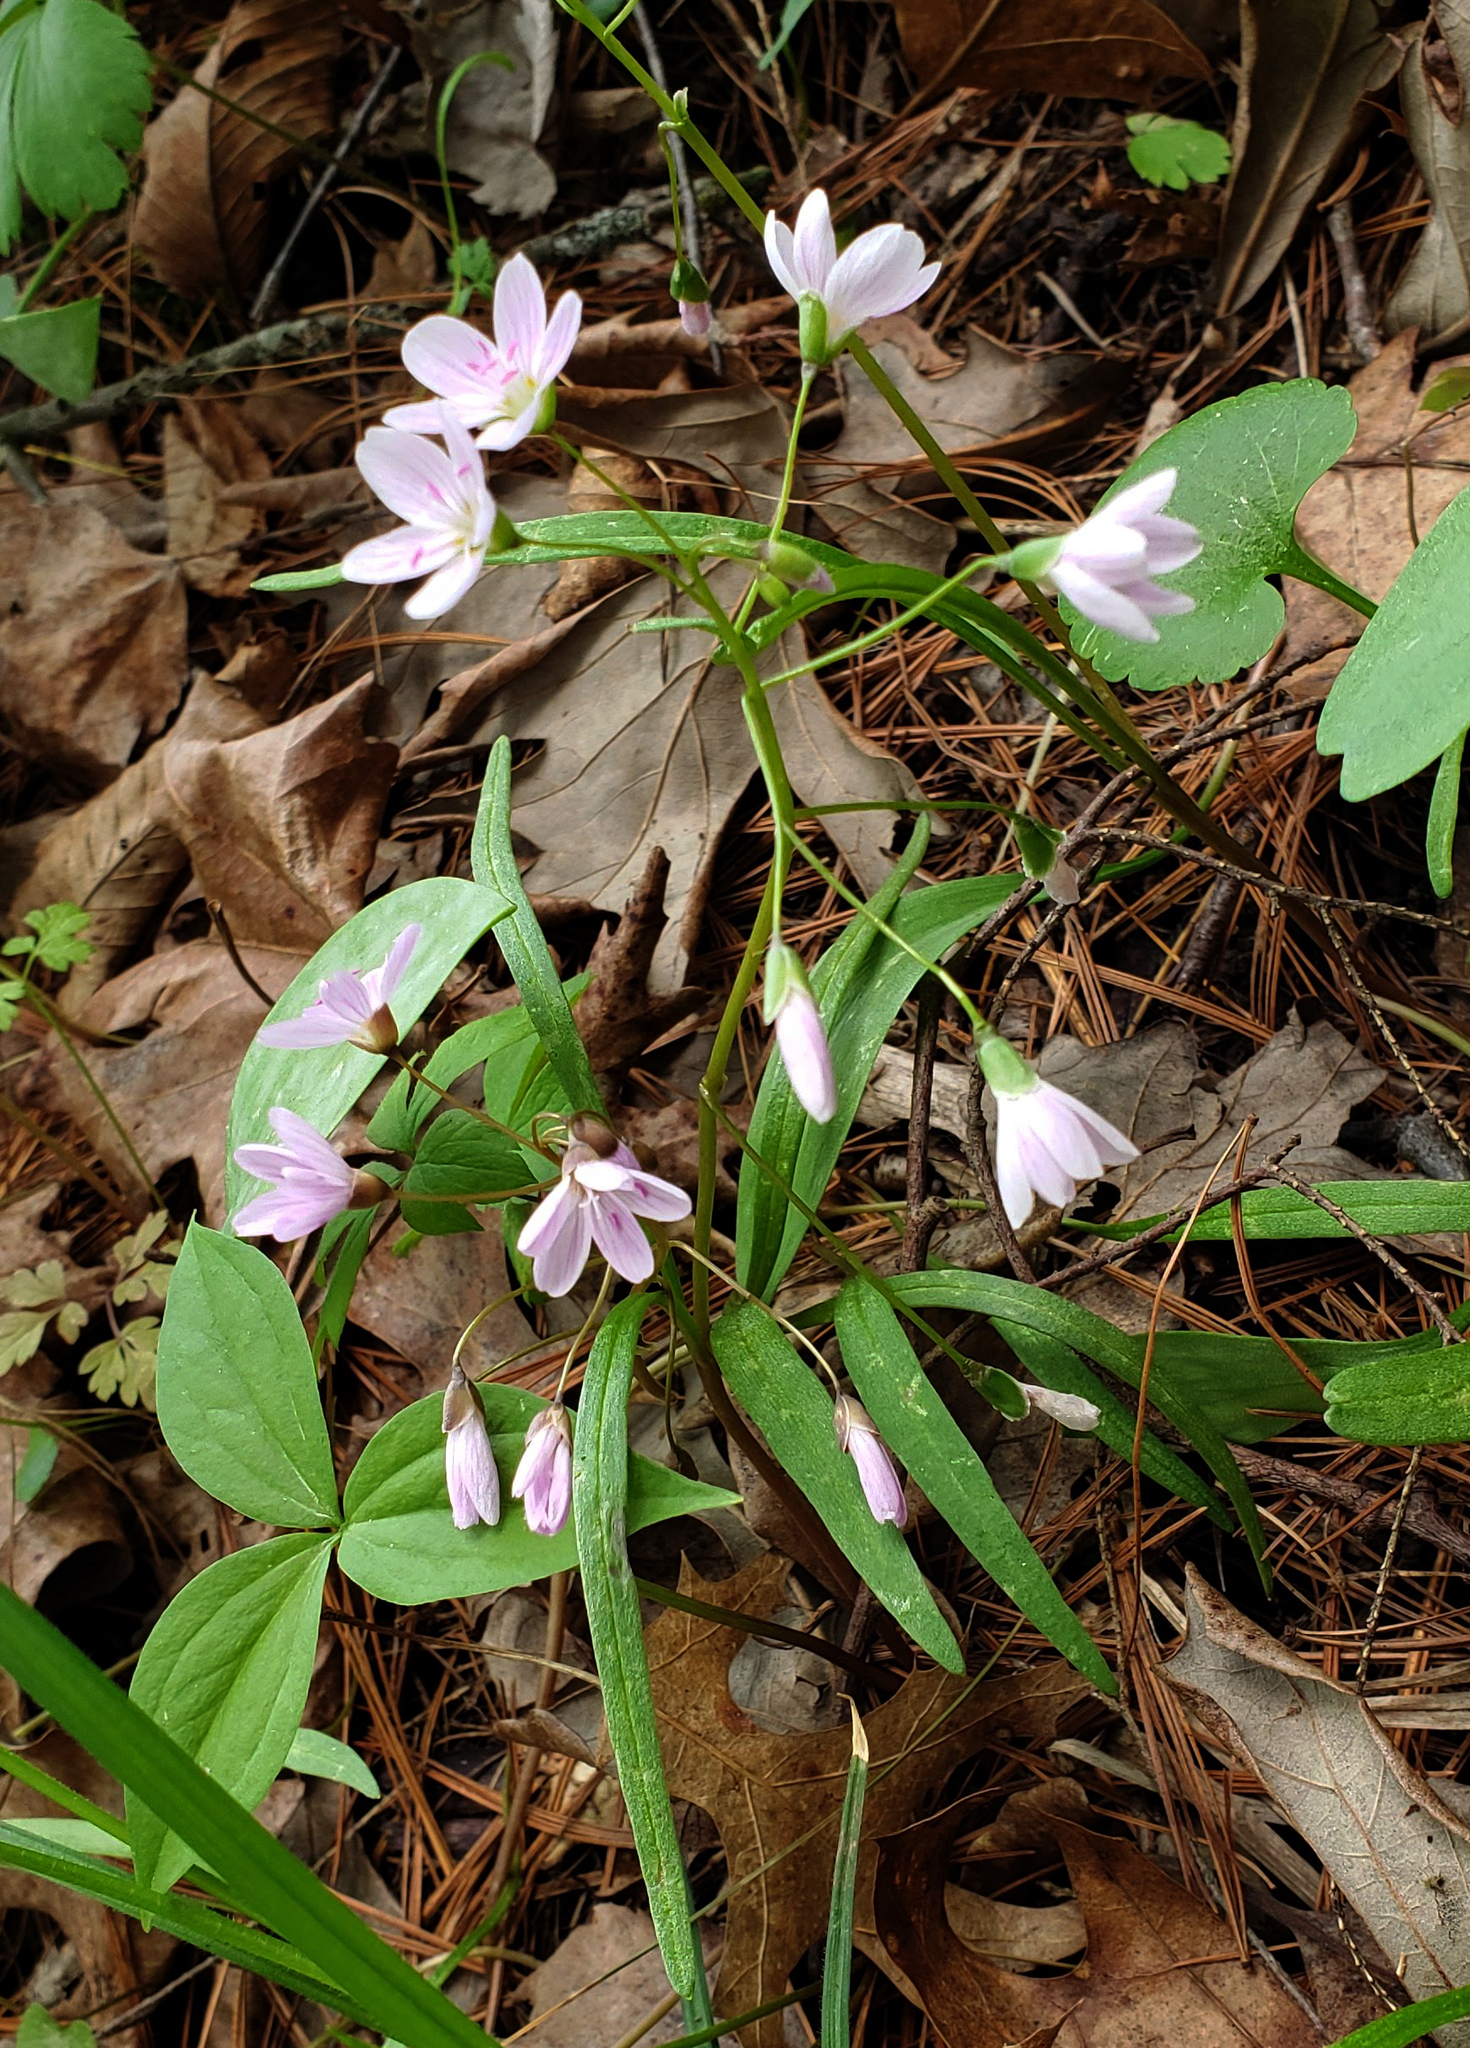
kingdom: Plantae
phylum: Tracheophyta
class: Magnoliopsida
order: Caryophyllales
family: Montiaceae
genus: Claytonia
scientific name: Claytonia virginica
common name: Virginia springbeauty
